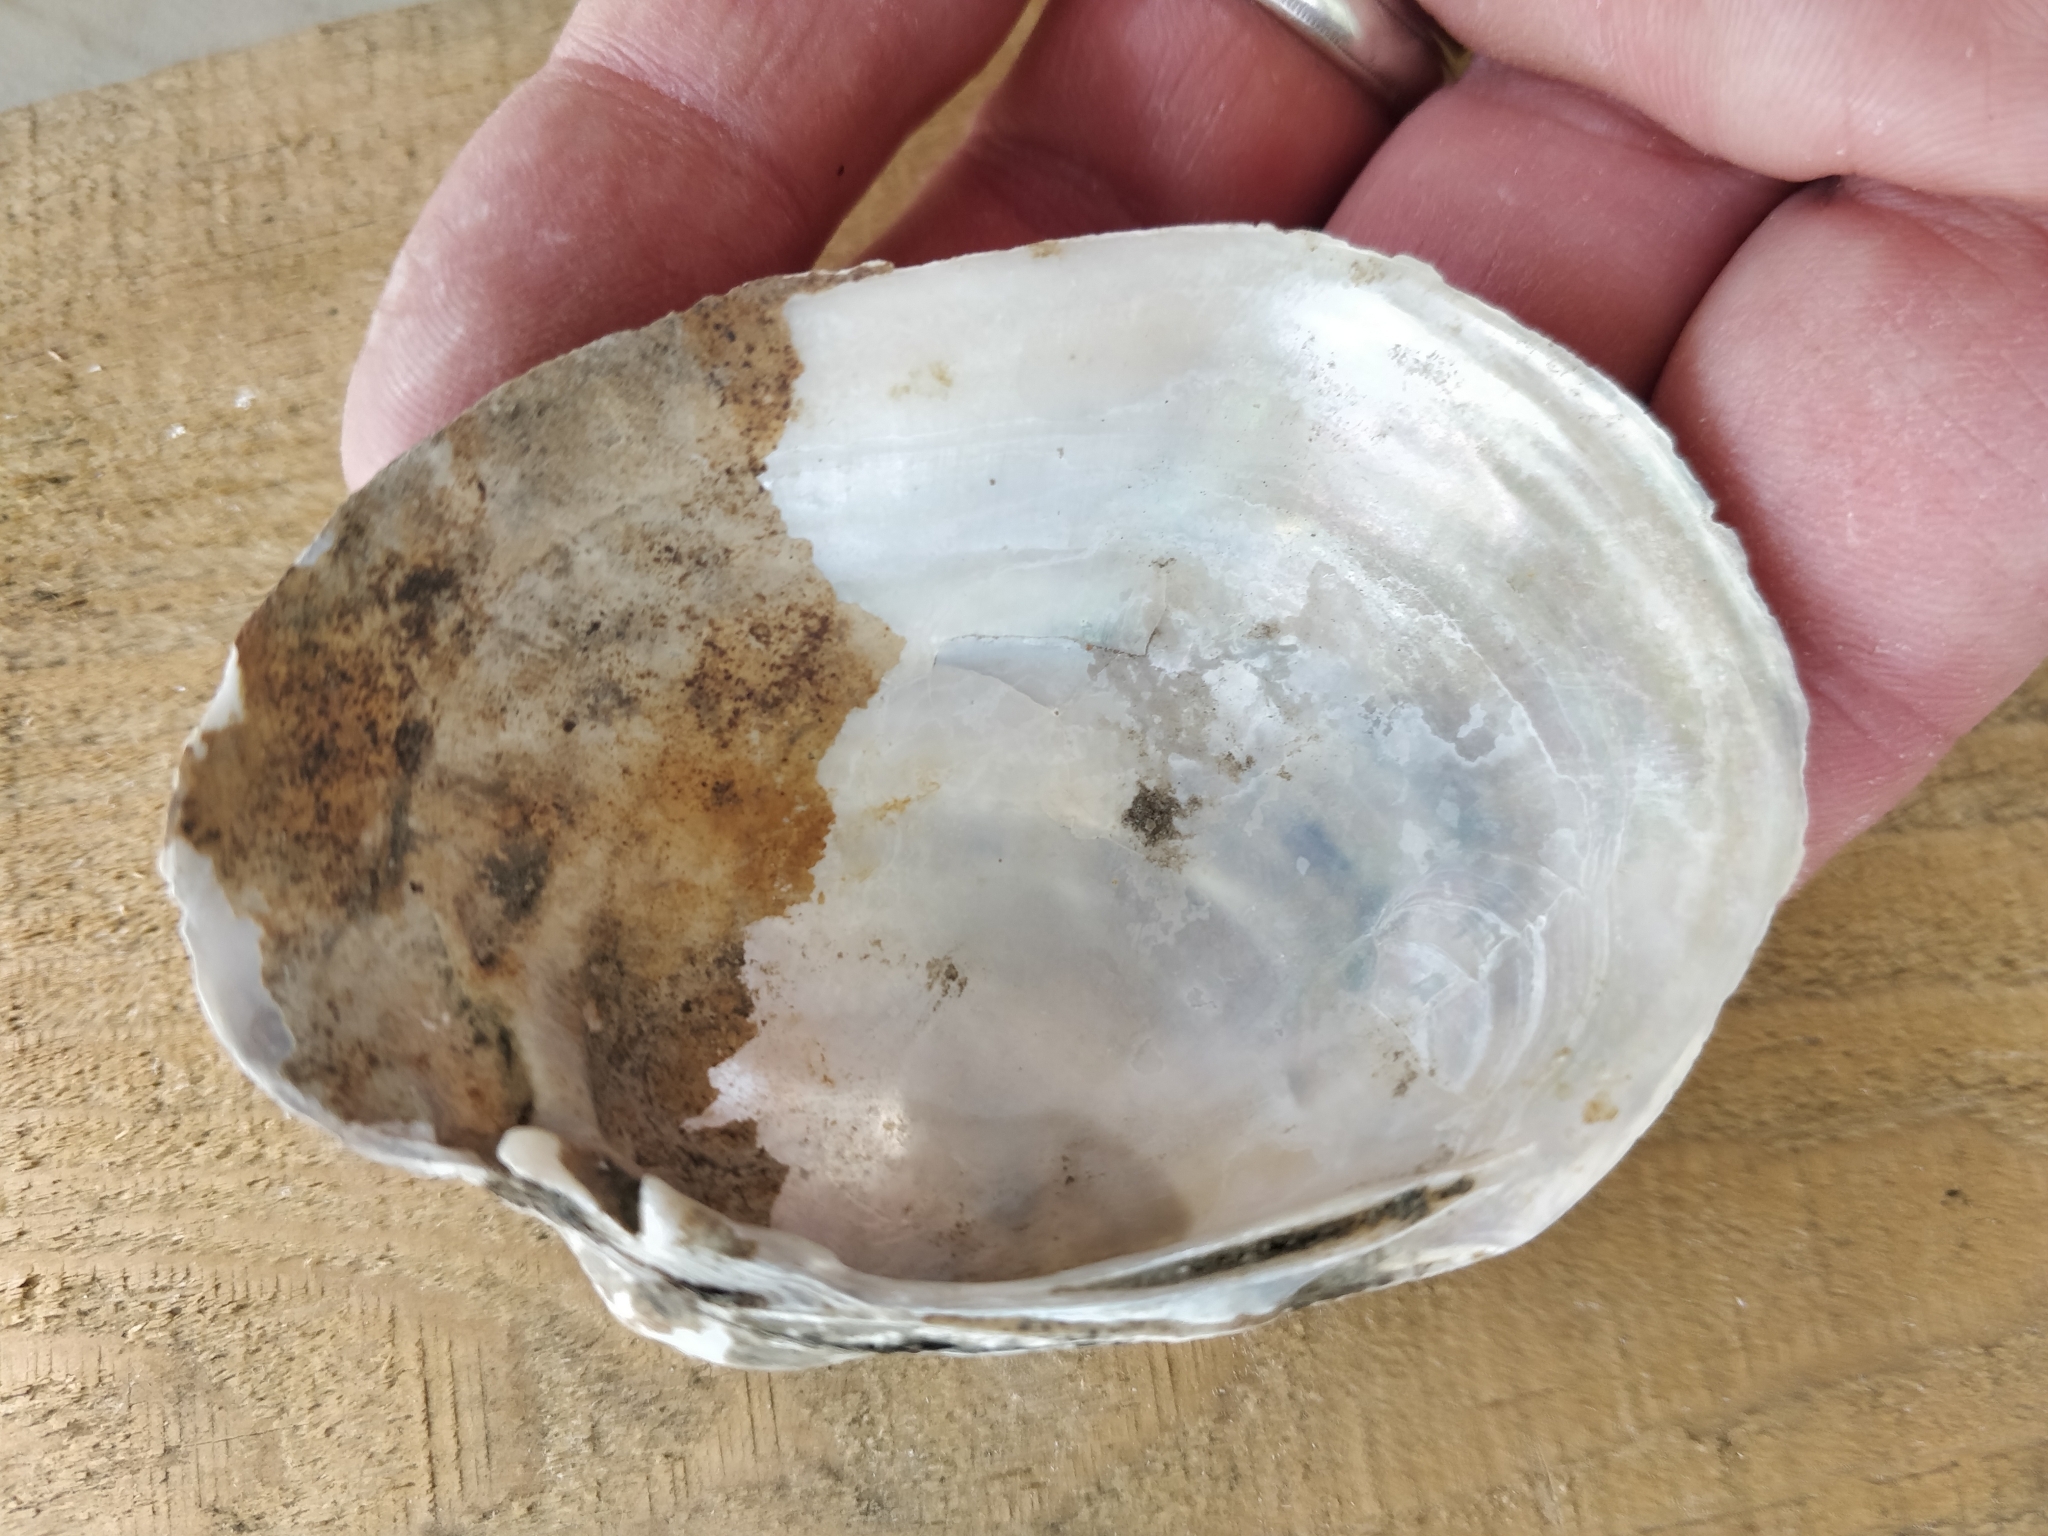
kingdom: Animalia
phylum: Mollusca
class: Bivalvia
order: Unionida
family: Unionidae
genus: Lampsilis
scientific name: Lampsilis cardium
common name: Plain pocketbook
